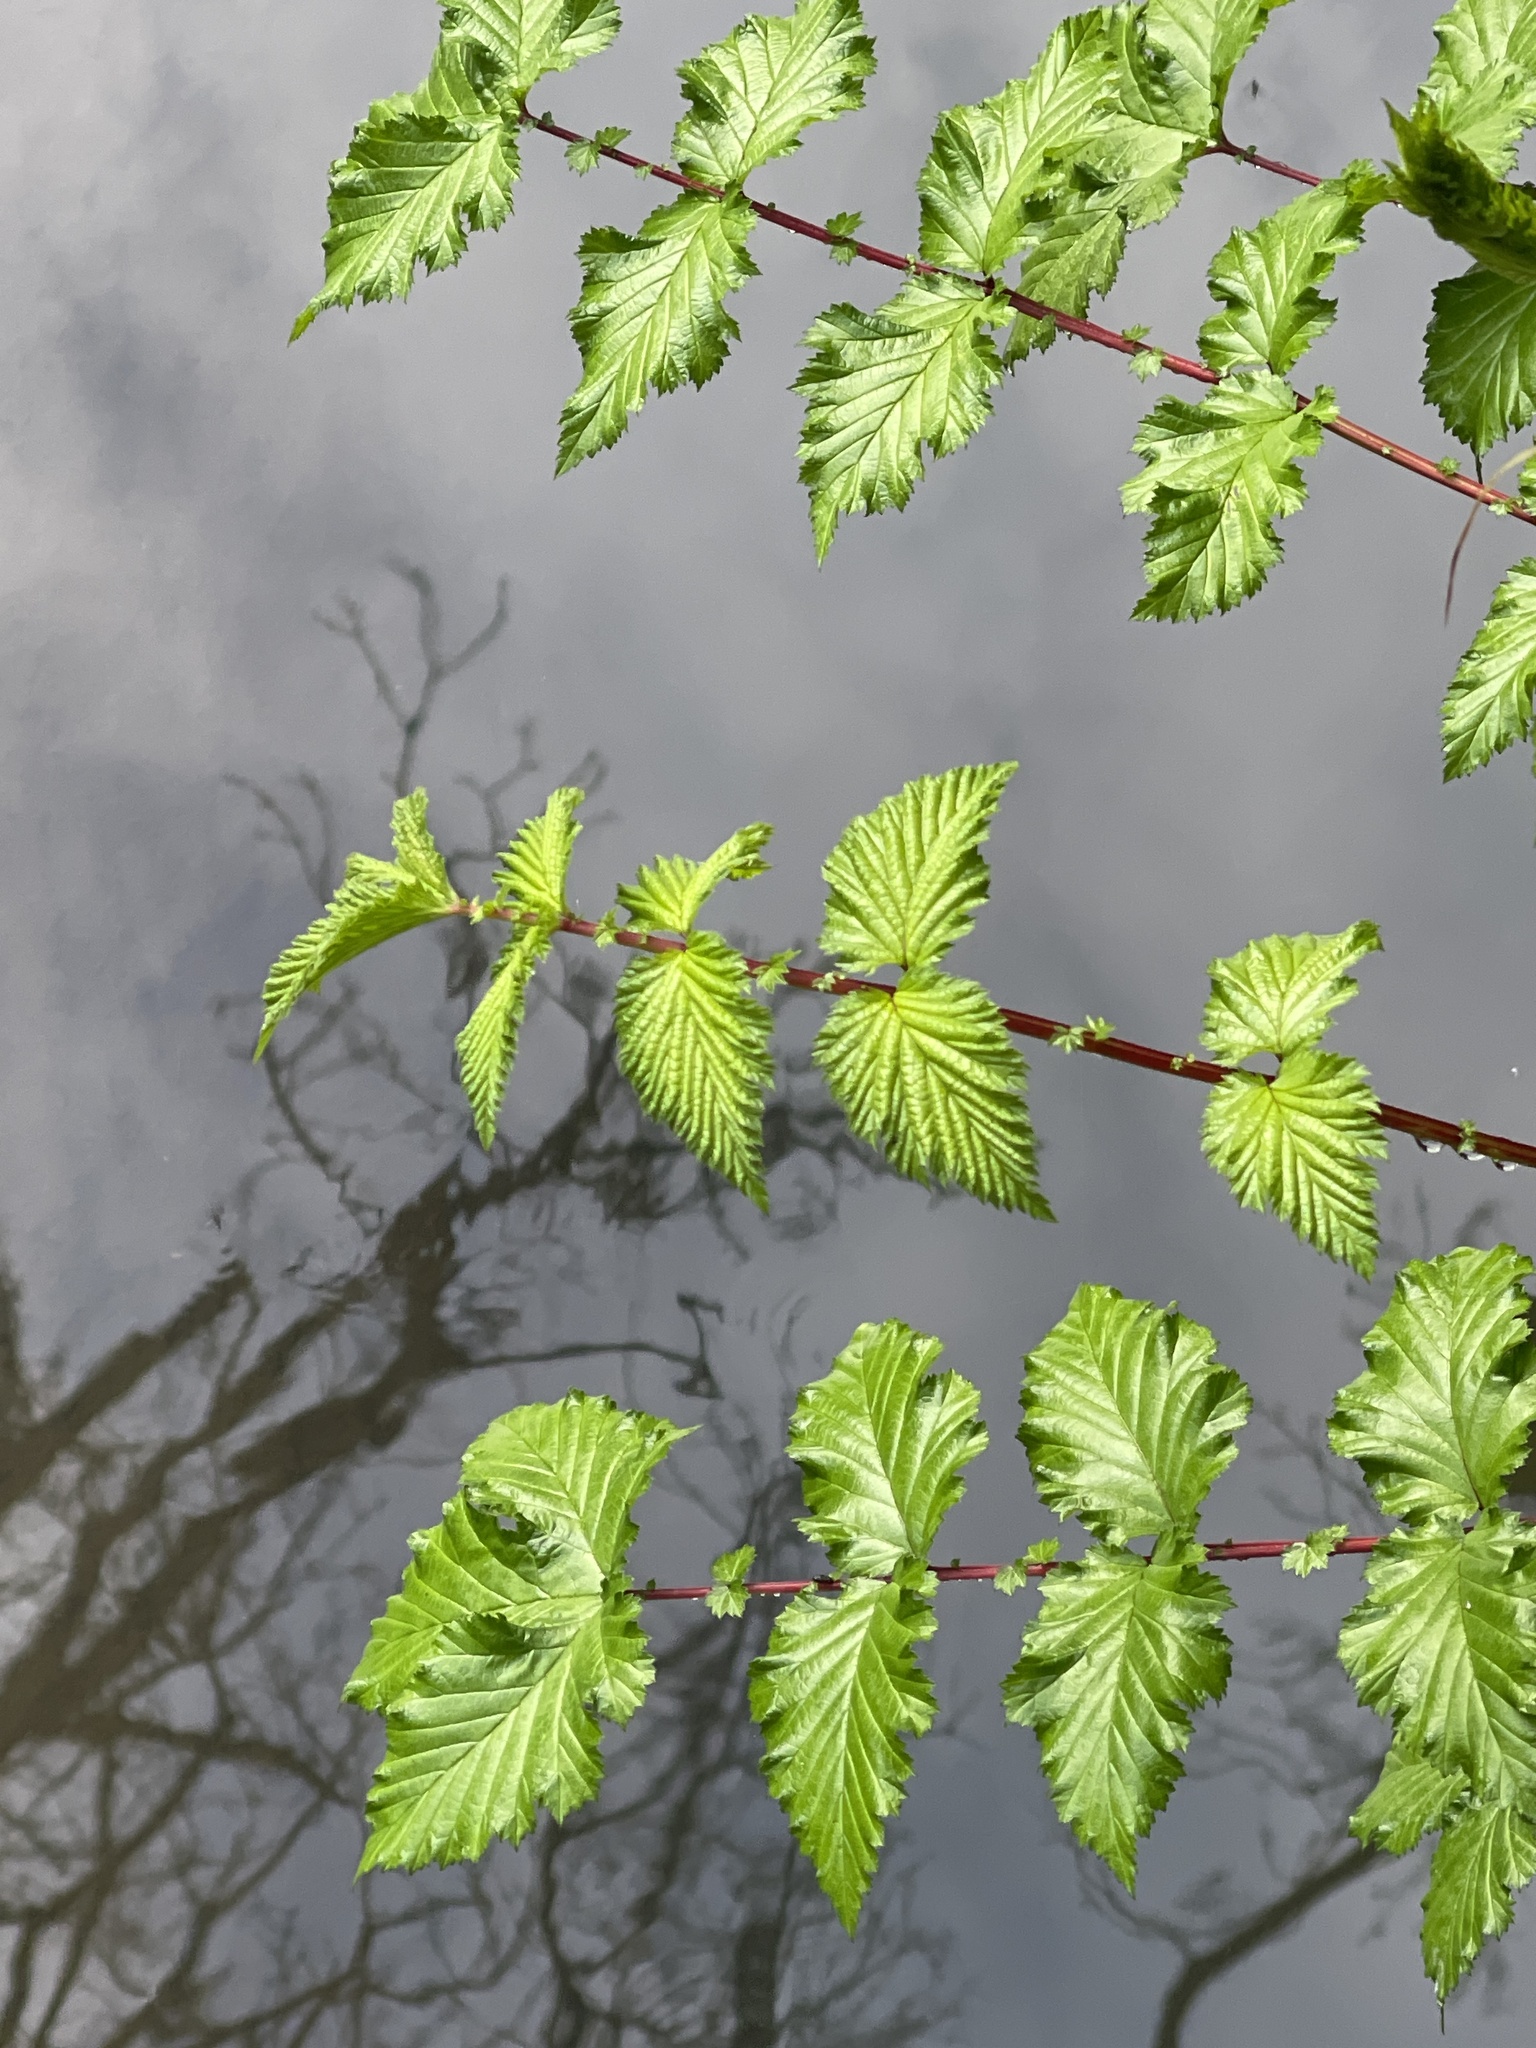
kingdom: Plantae
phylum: Tracheophyta
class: Magnoliopsida
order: Rosales
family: Rosaceae
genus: Filipendula
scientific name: Filipendula ulmaria
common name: Meadowsweet
